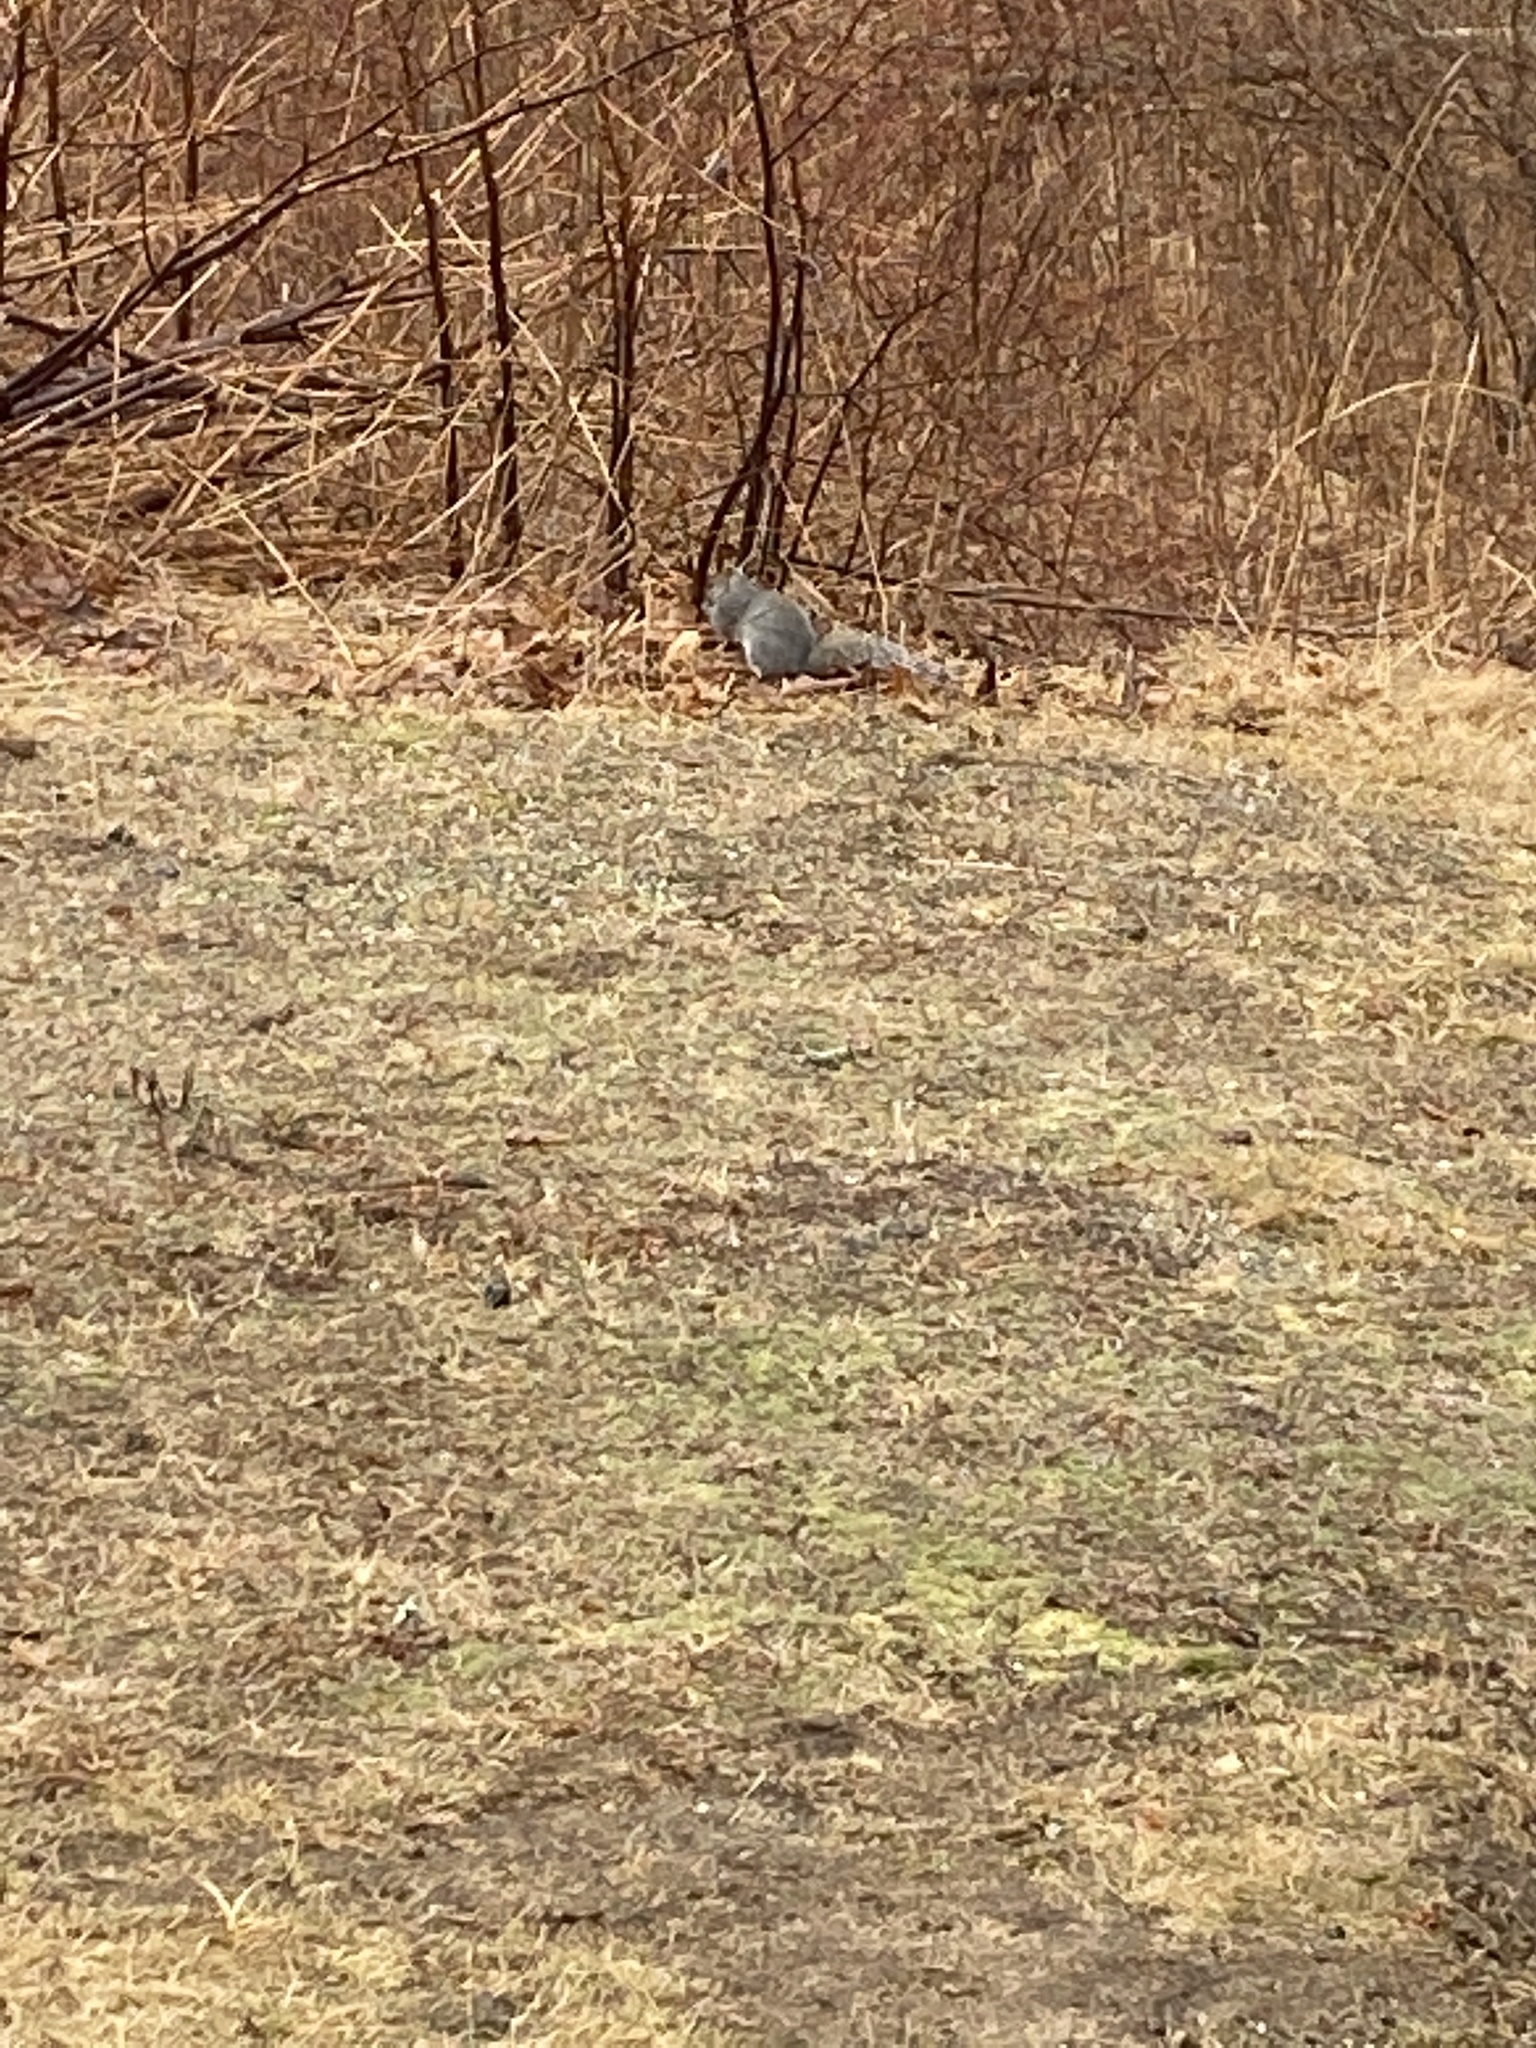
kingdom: Animalia
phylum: Chordata
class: Mammalia
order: Rodentia
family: Sciuridae
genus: Sciurus
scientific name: Sciurus carolinensis
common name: Eastern gray squirrel
